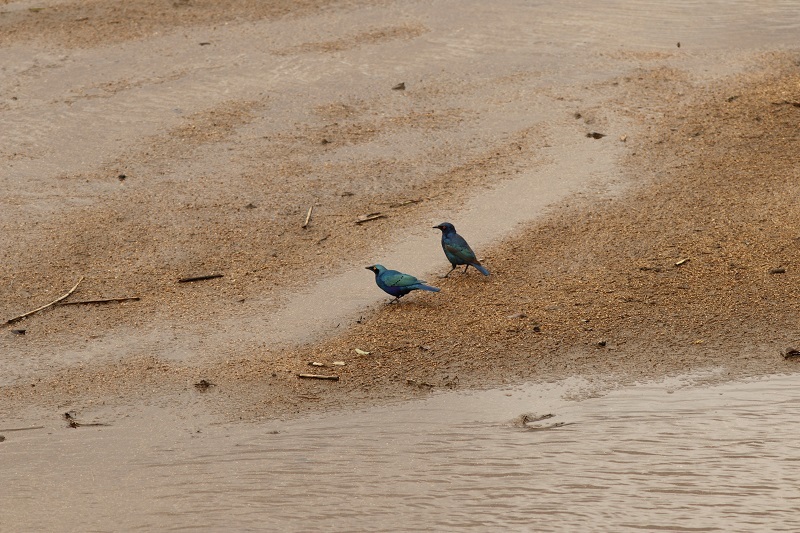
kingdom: Animalia
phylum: Chordata
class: Aves
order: Passeriformes
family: Sturnidae
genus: Lamprotornis
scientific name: Lamprotornis chalybaeus
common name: Greater blue-eared starling
